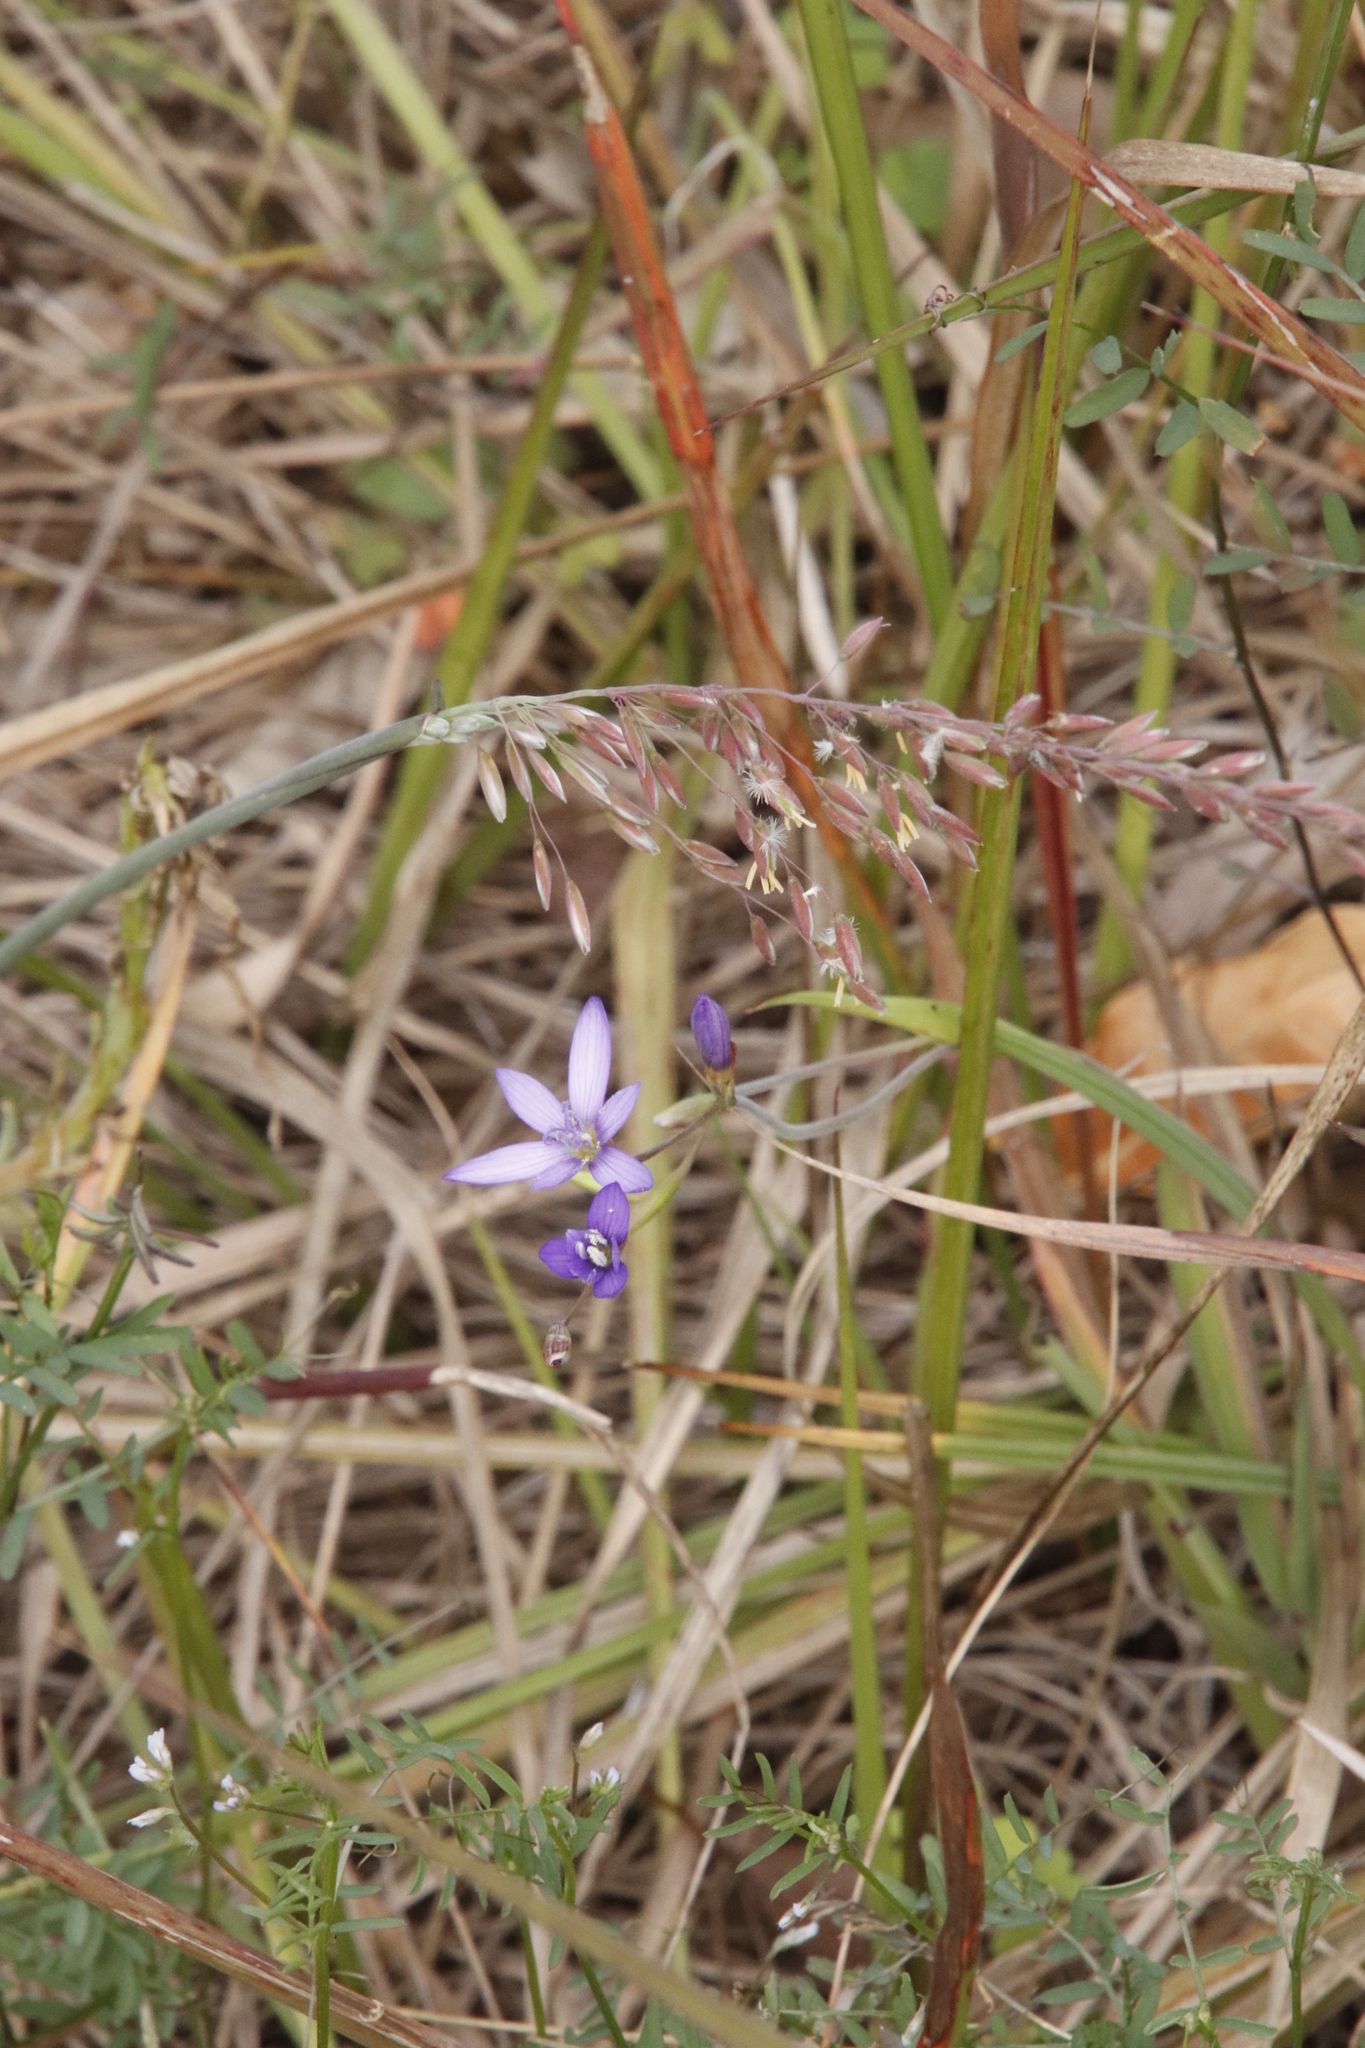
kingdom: Plantae
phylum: Tracheophyta
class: Liliopsida
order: Asparagales
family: Iridaceae
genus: Geissorhiza
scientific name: Geissorhiza aspera
